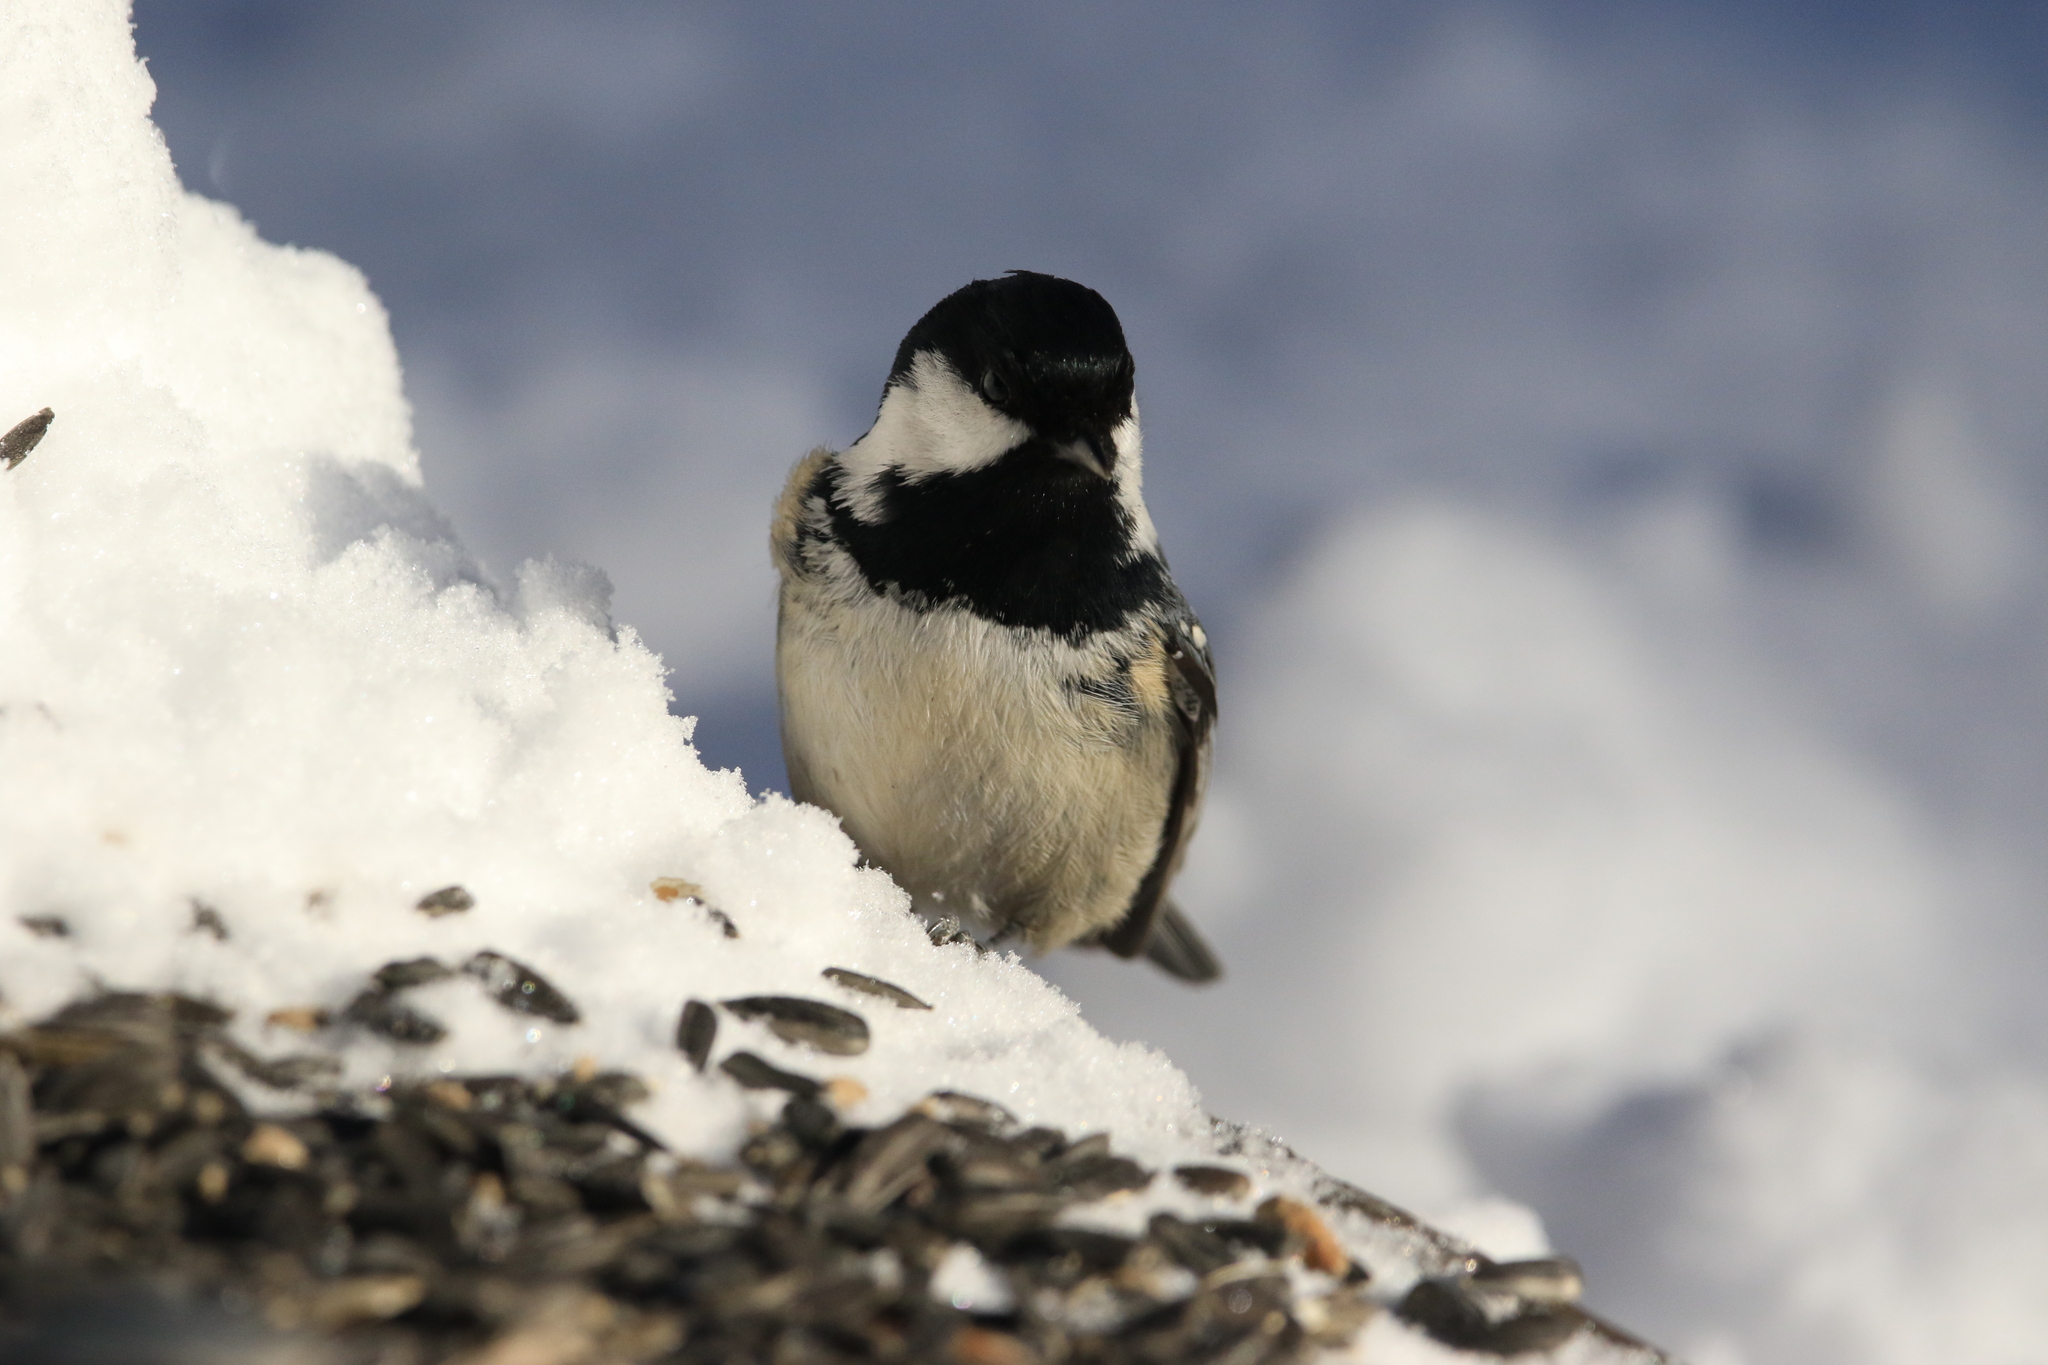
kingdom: Animalia
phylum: Chordata
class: Aves
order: Passeriformes
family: Paridae
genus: Periparus
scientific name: Periparus ater
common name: Coal tit
